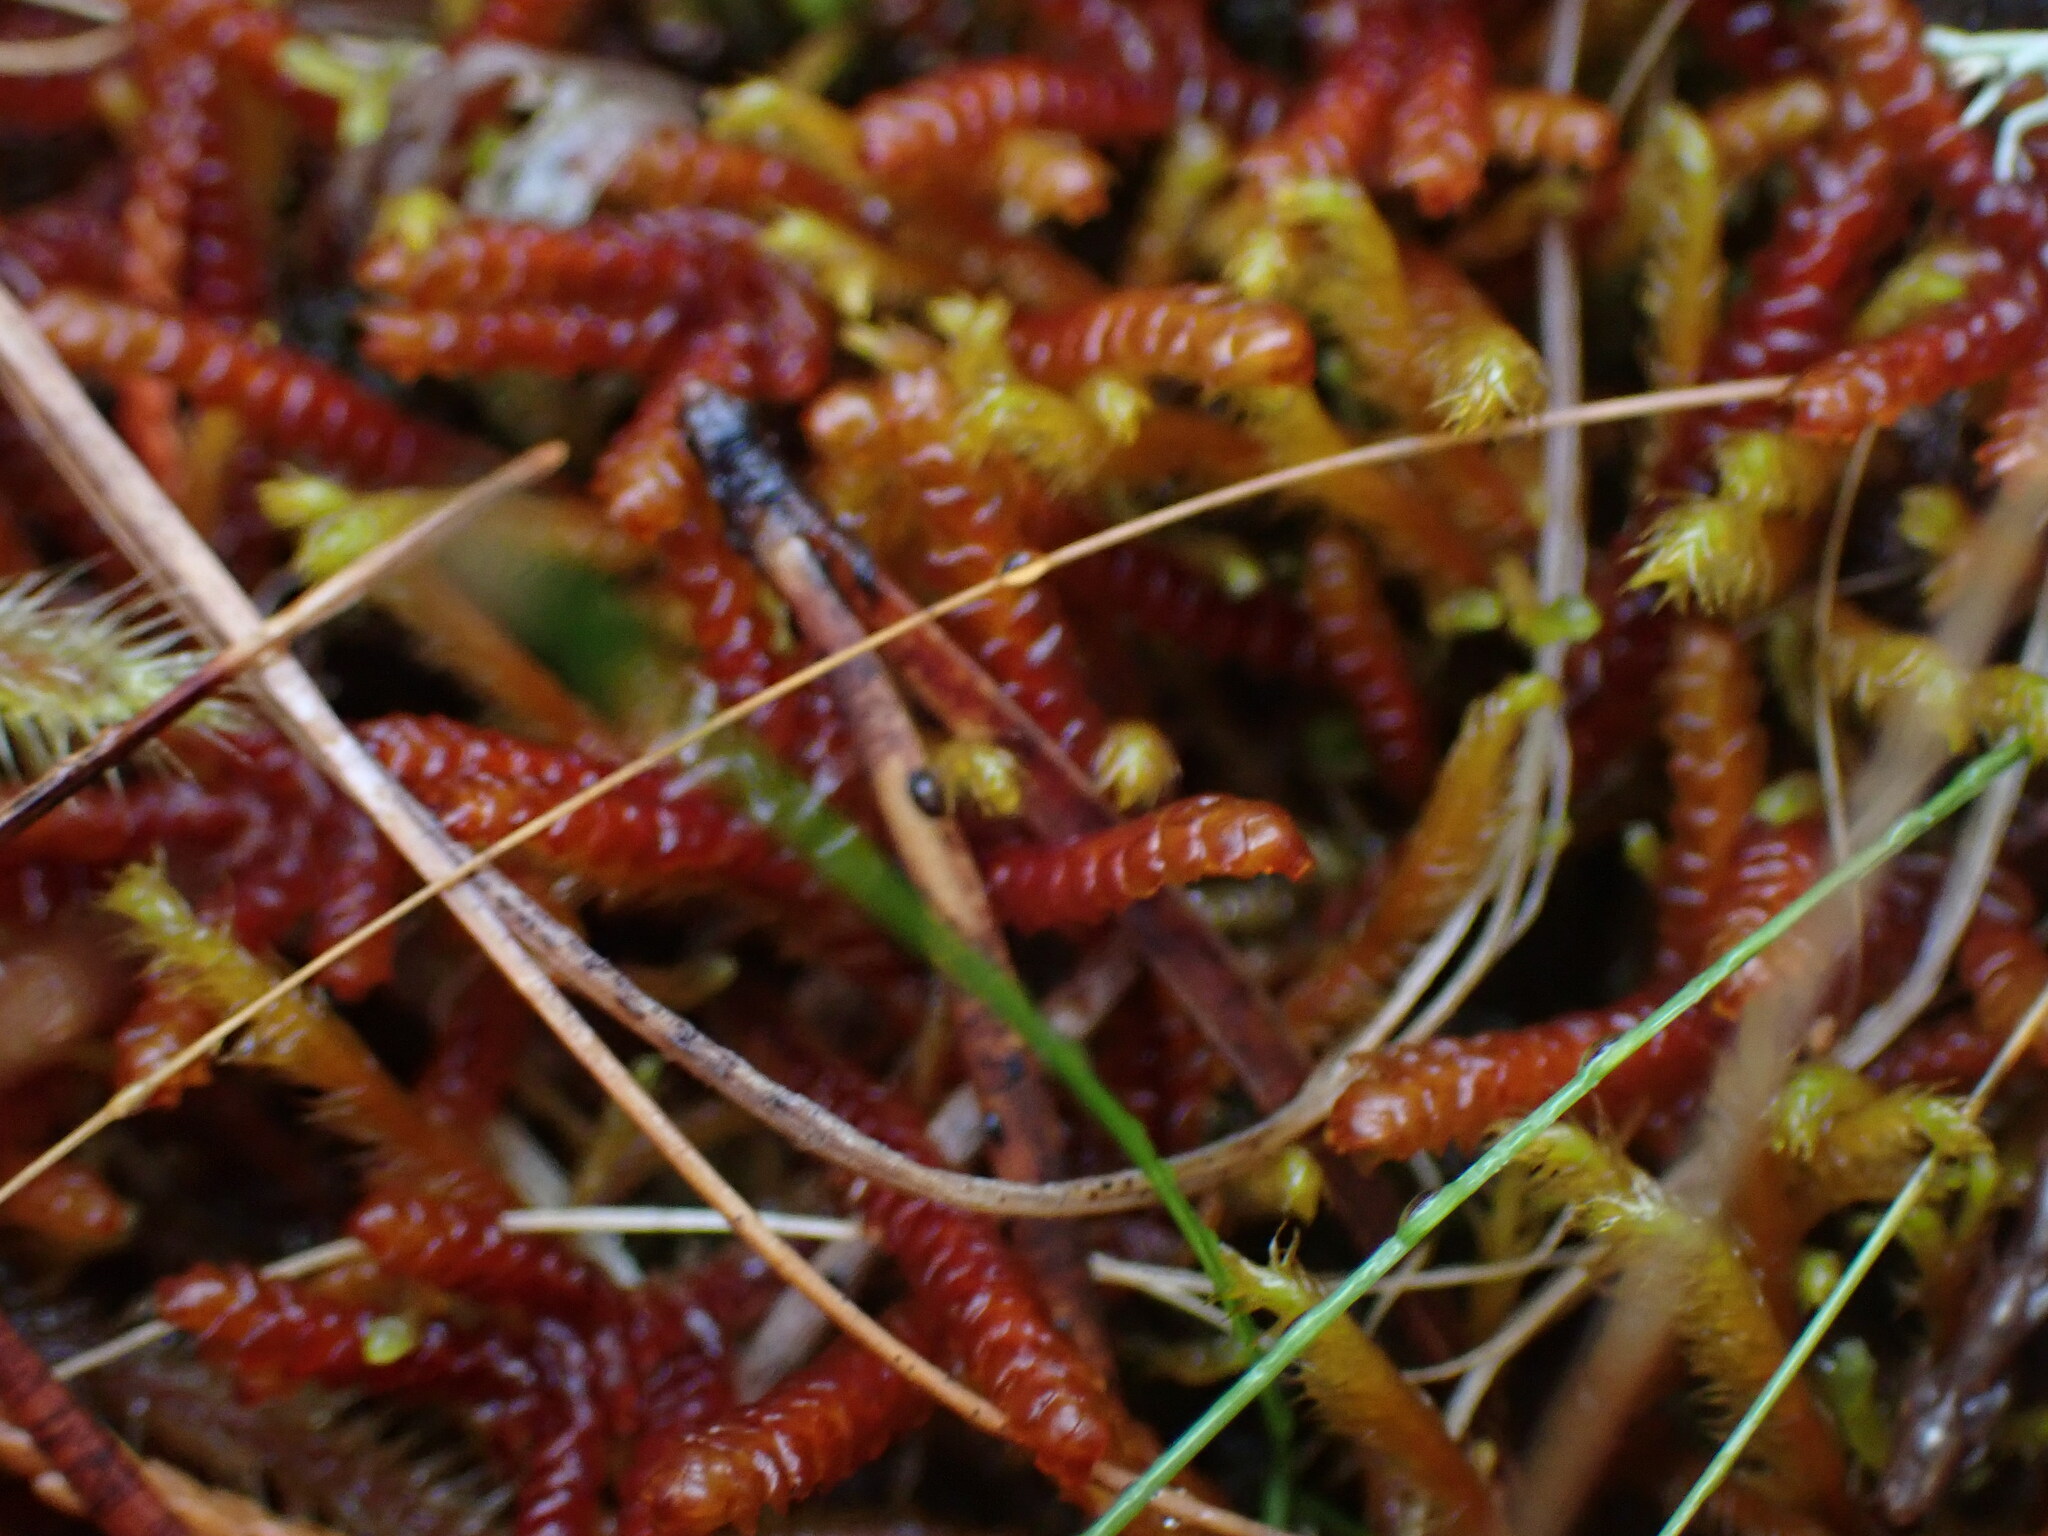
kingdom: Plantae
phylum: Marchantiophyta
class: Jungermanniopsida
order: Pleuroziales
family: Pleuroziaceae
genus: Pleurozia
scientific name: Pleurozia purpurea
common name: Purple spoonwort
